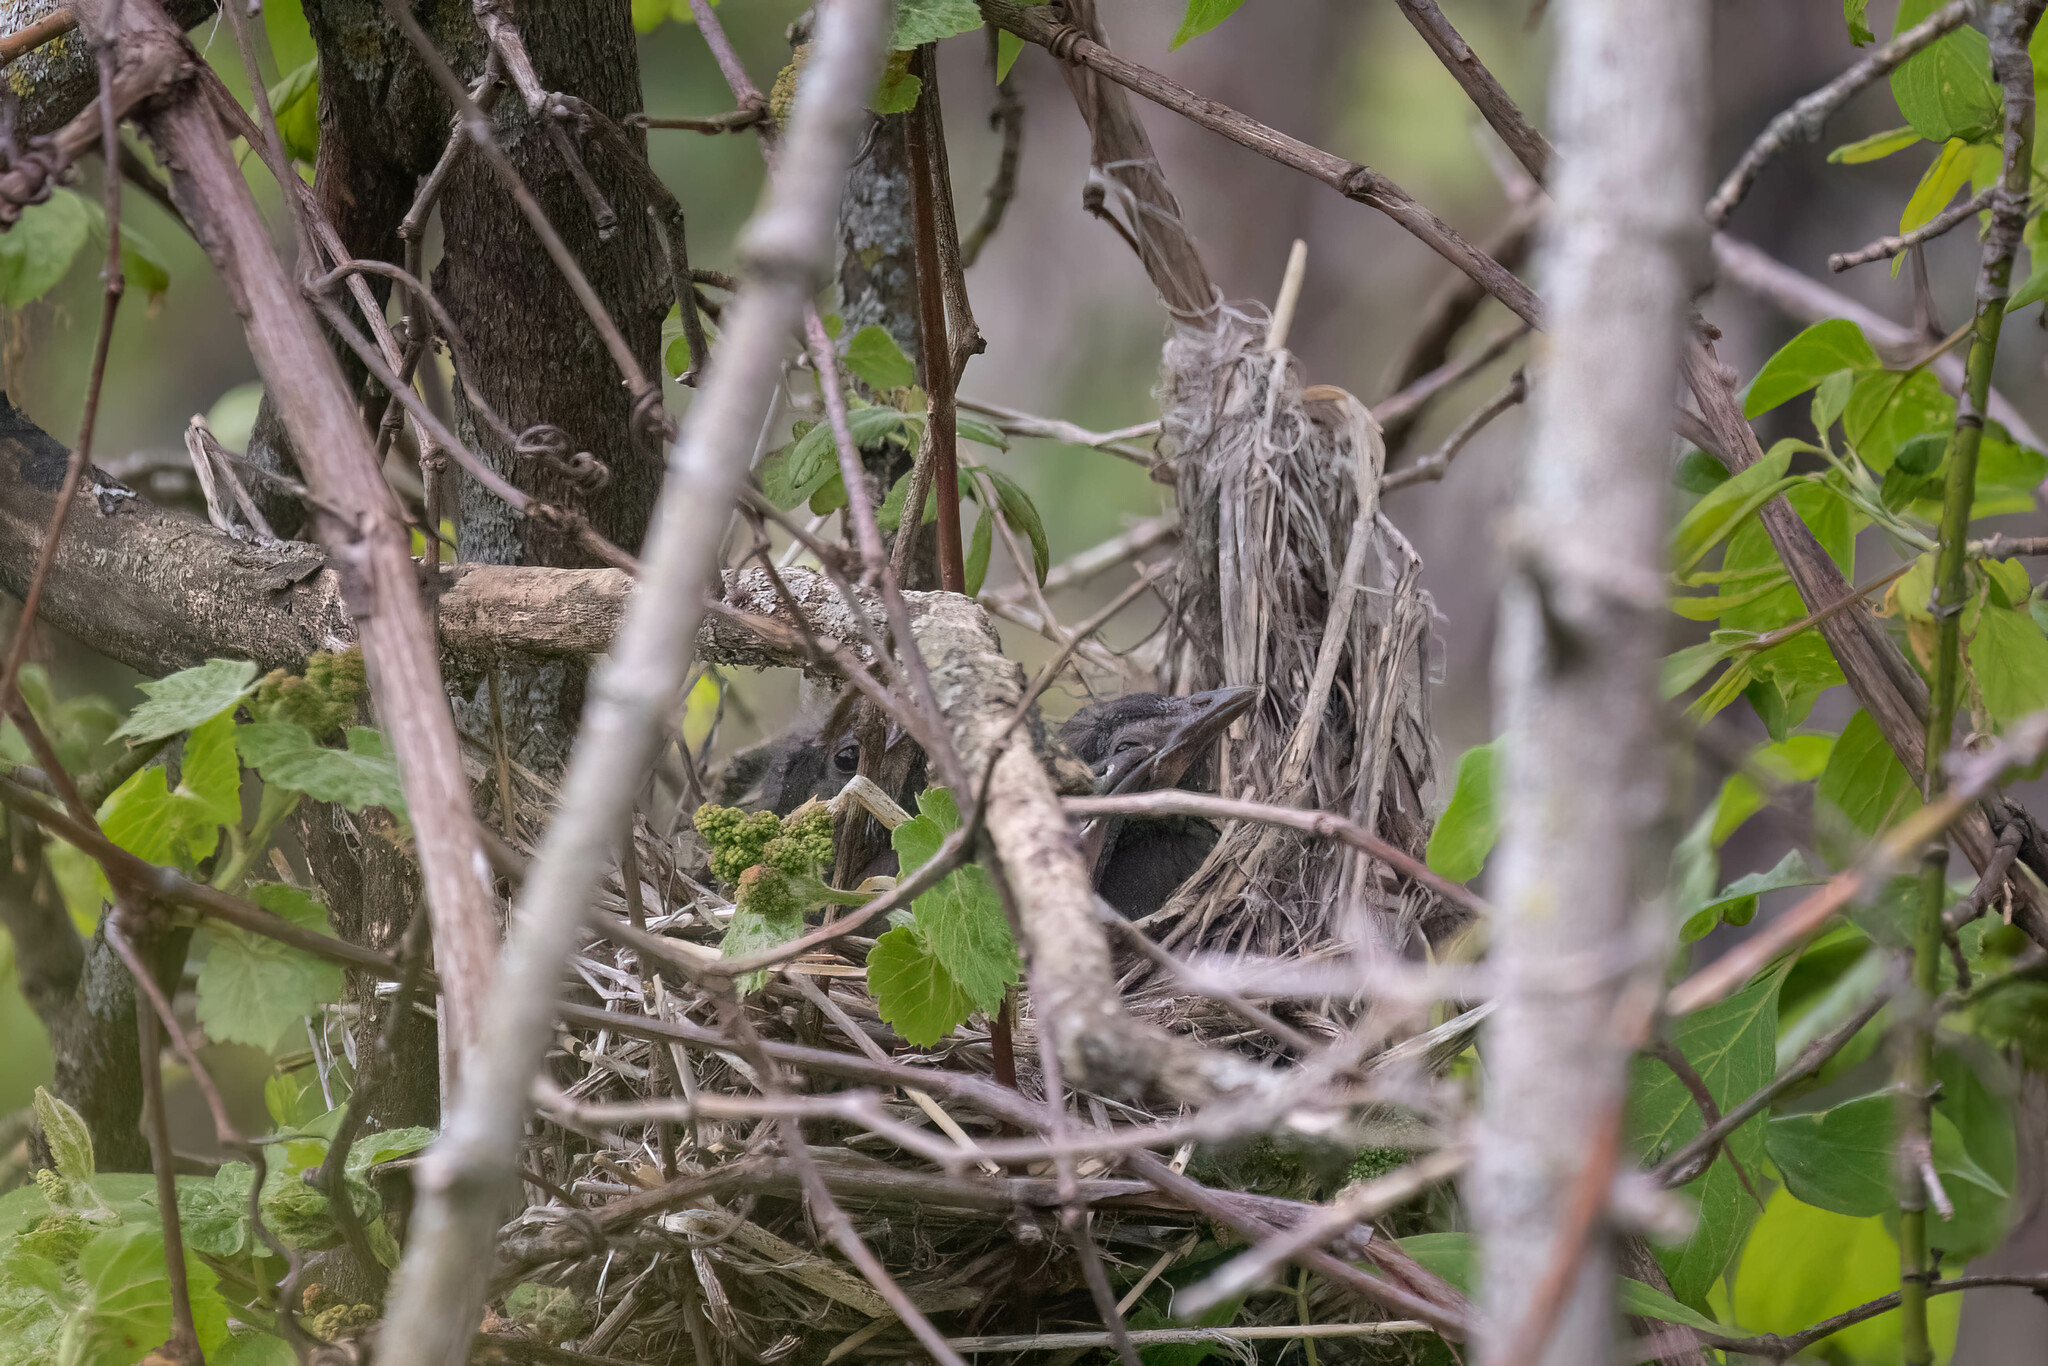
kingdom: Animalia
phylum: Chordata
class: Aves
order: Passeriformes
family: Icteridae
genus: Quiscalus
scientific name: Quiscalus quiscula
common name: Common grackle
